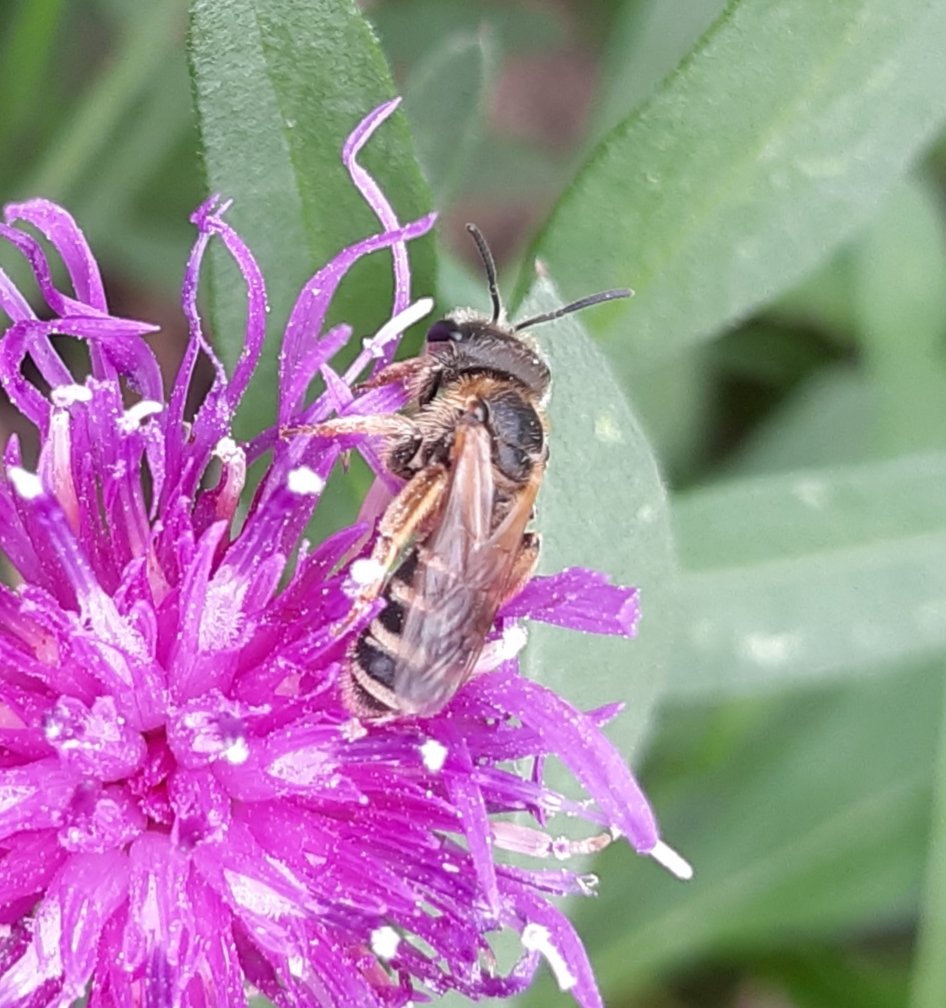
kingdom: Animalia
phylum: Arthropoda
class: Insecta
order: Hymenoptera
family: Halictidae
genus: Halictus
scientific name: Halictus ligatus
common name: Ligated furrow bee
